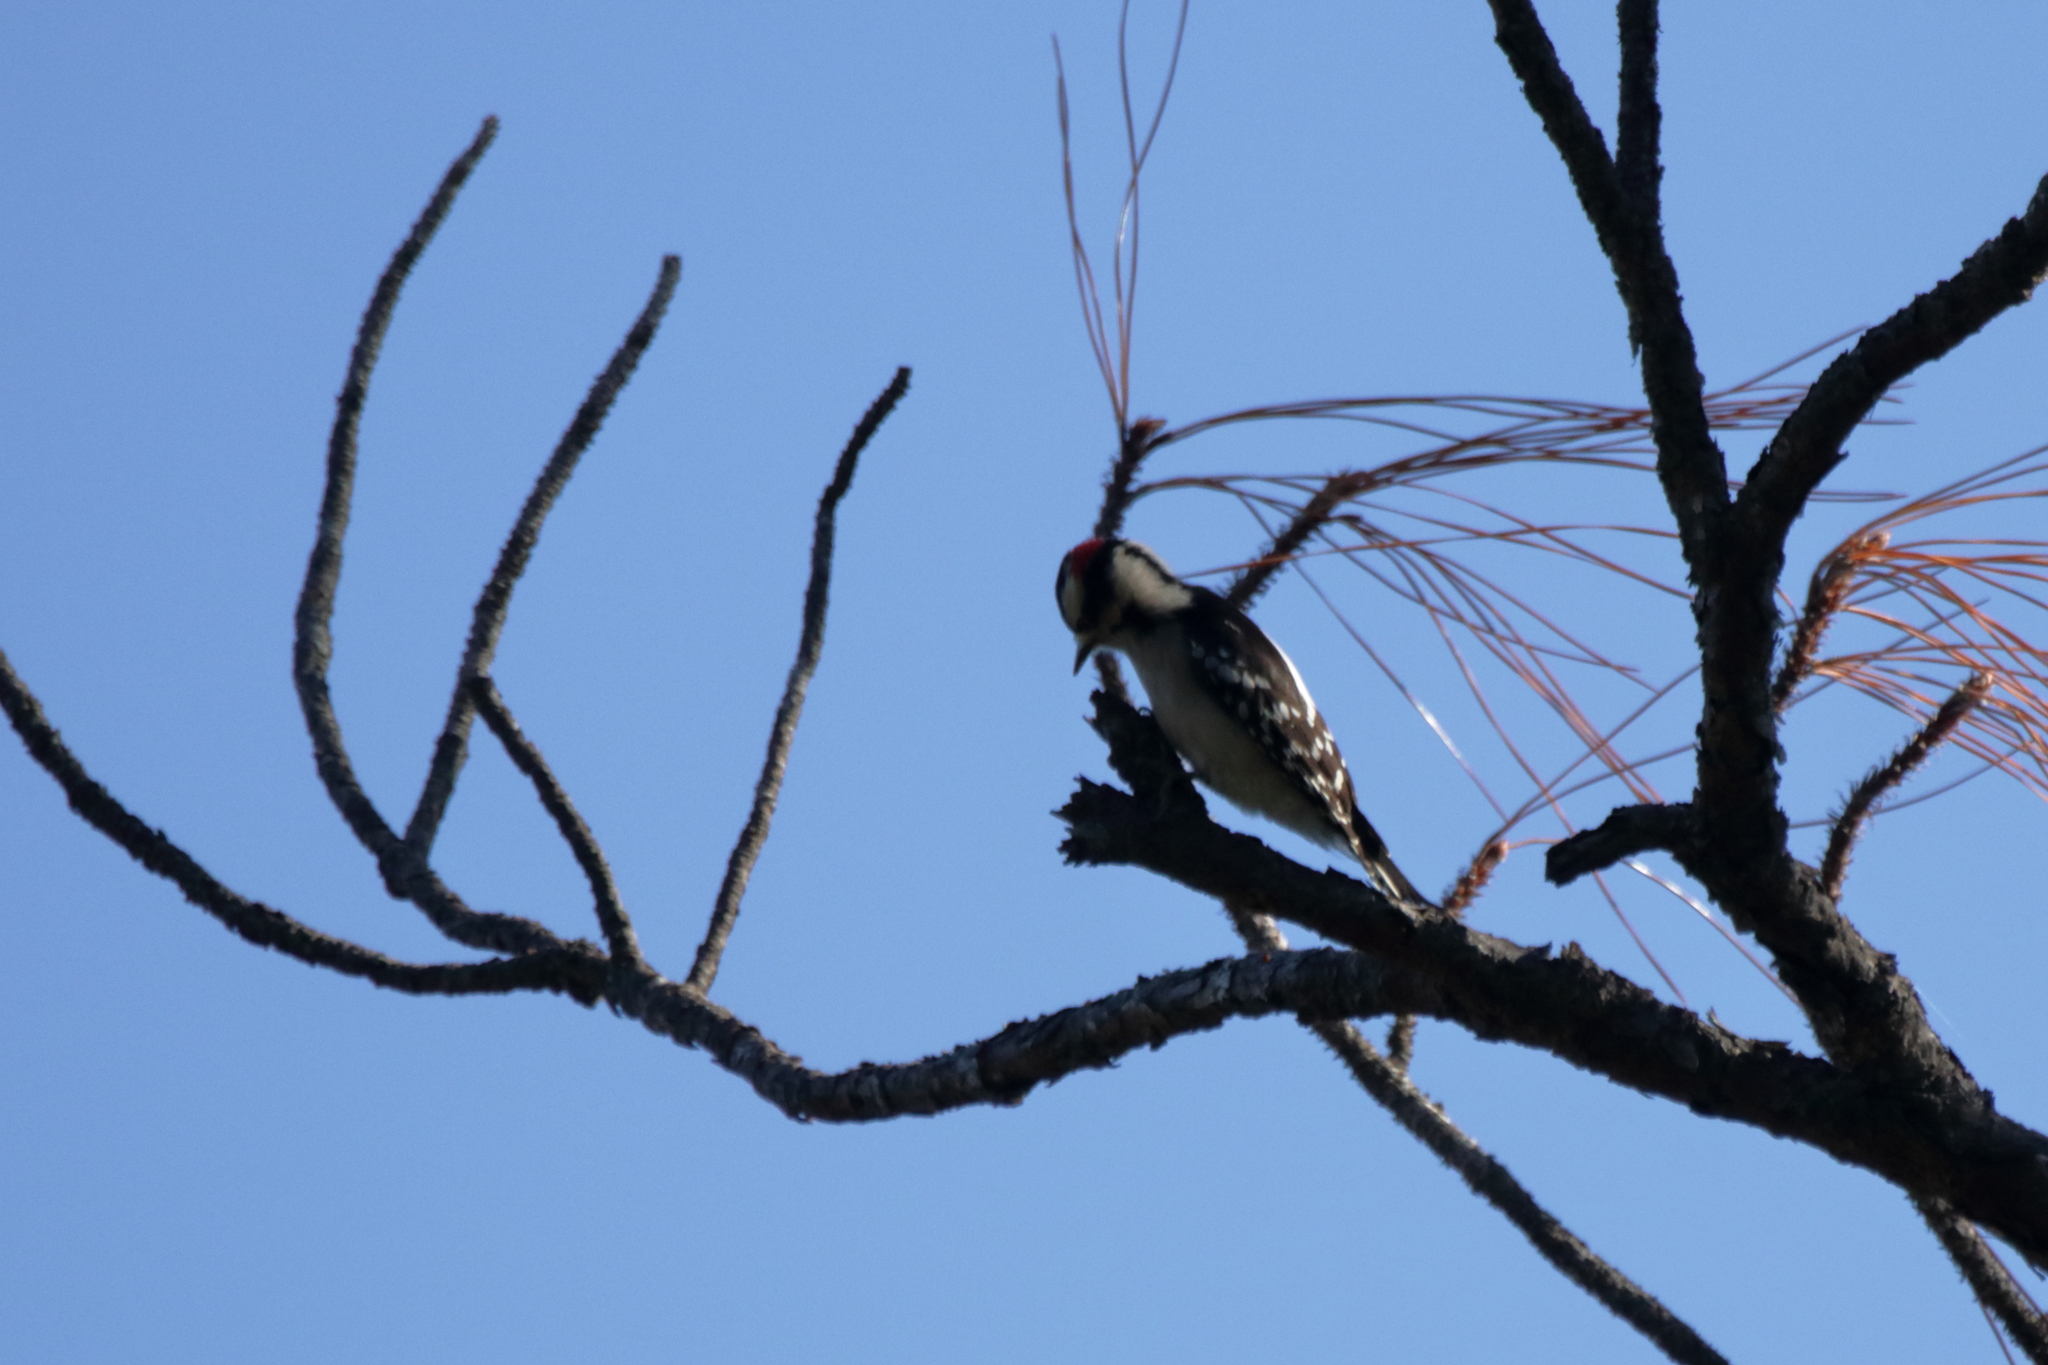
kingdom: Animalia
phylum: Chordata
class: Aves
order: Piciformes
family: Picidae
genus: Dryobates
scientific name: Dryobates pubescens
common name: Downy woodpecker
